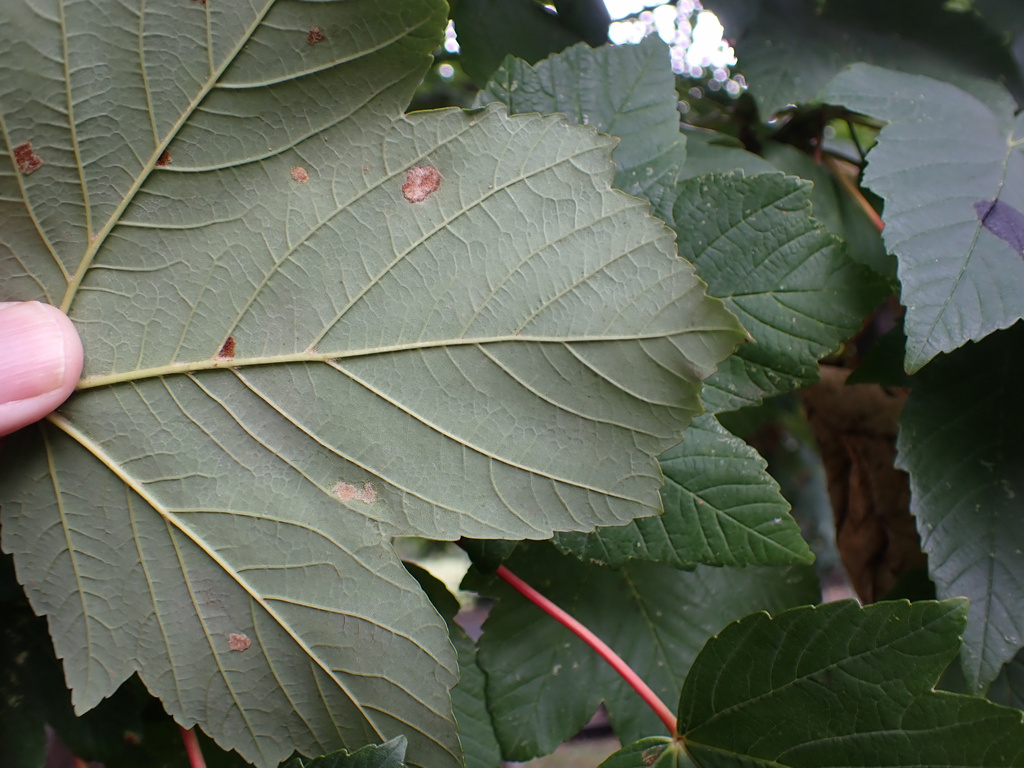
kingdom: Animalia
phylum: Arthropoda
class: Arachnida
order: Trombidiformes
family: Eriophyidae
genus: Aceria
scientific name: Aceria pseudoplatani
